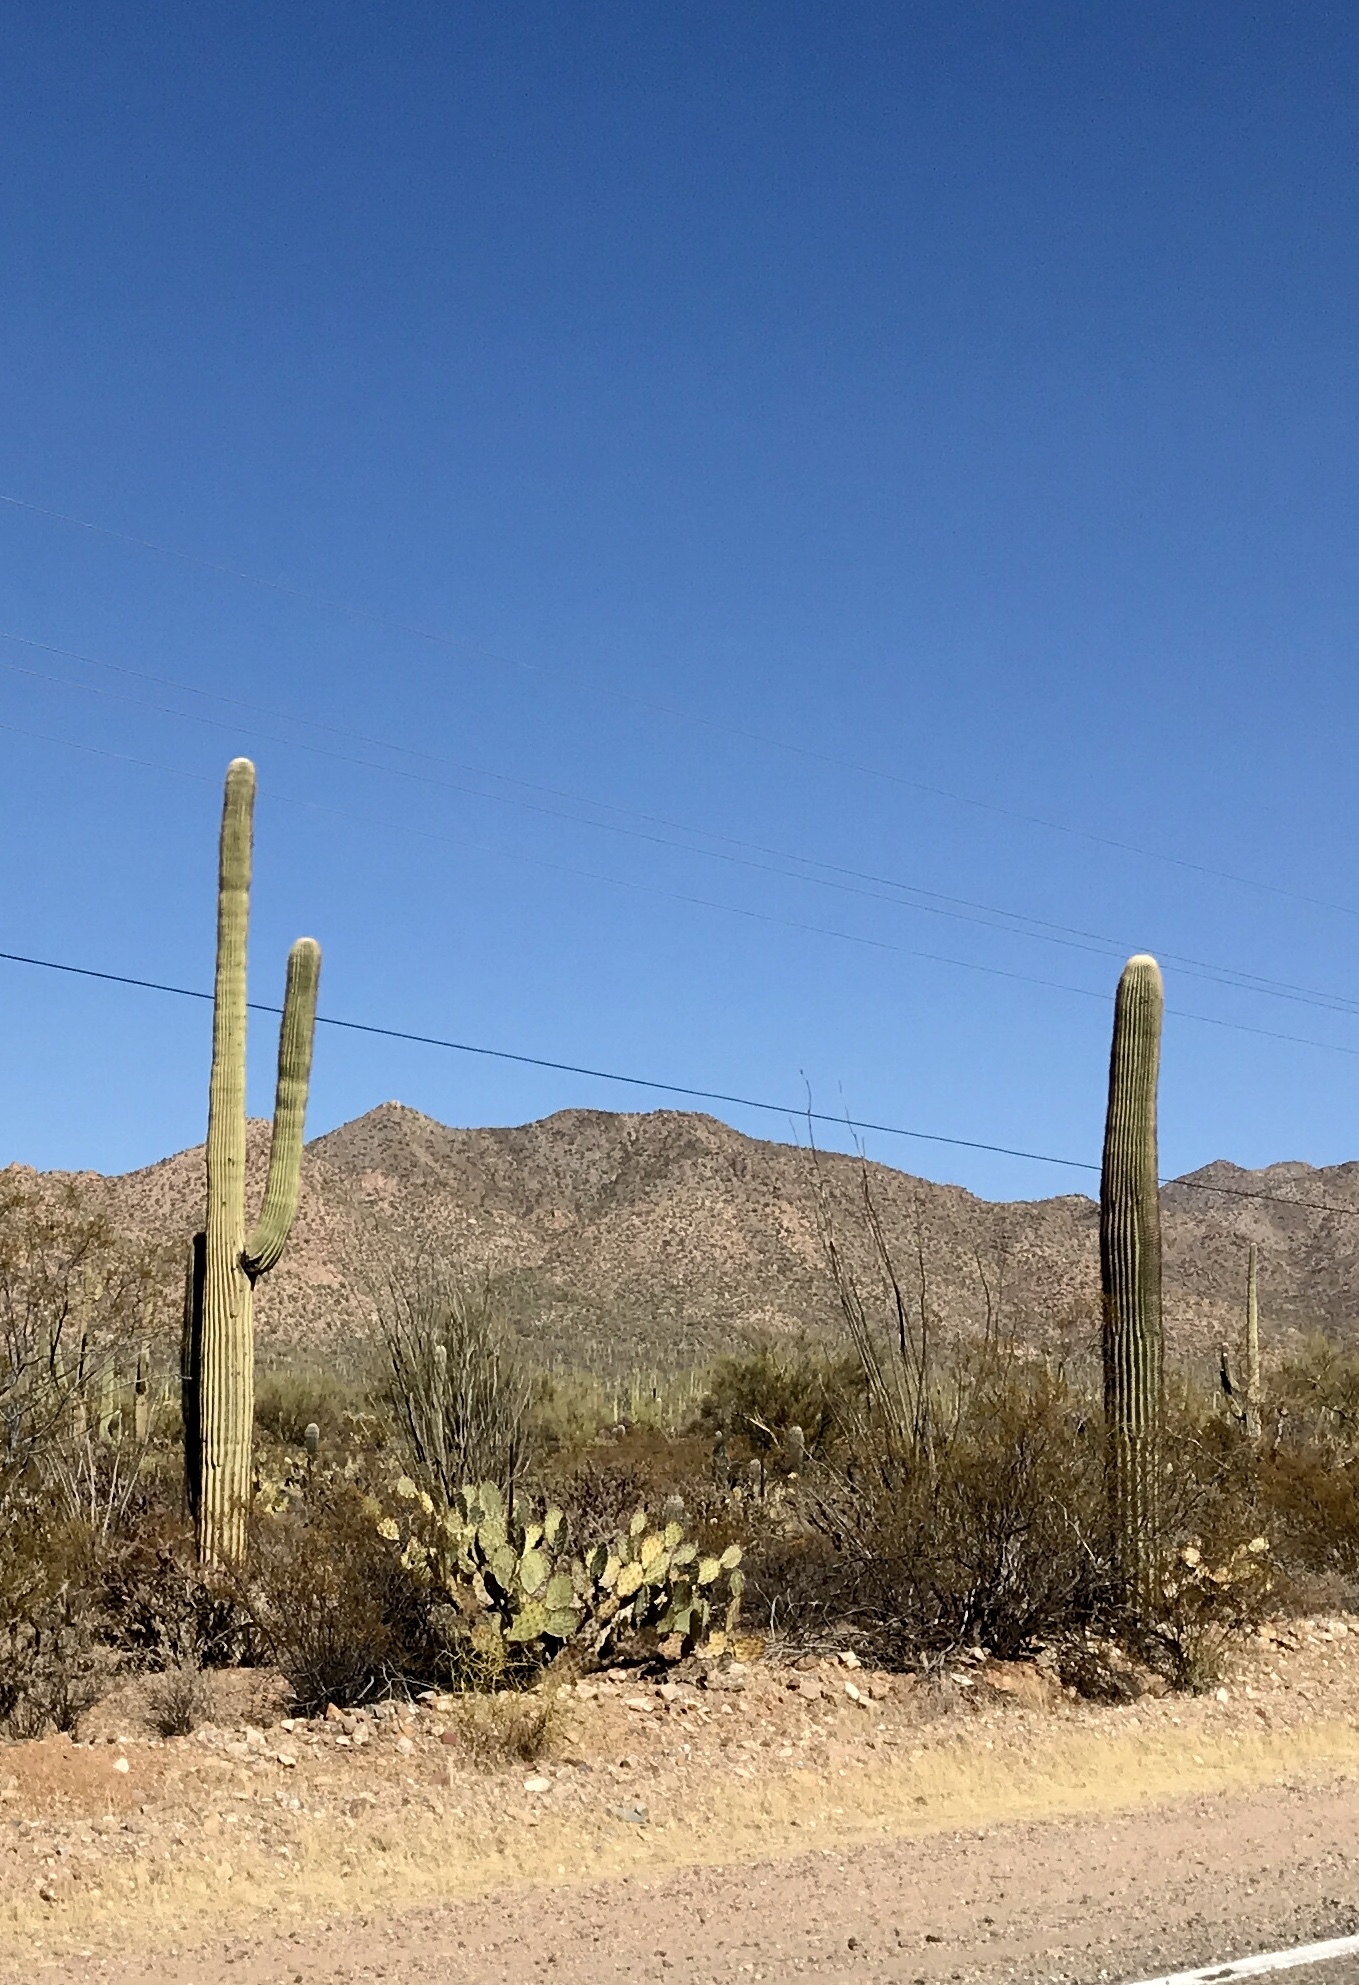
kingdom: Plantae
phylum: Tracheophyta
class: Magnoliopsida
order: Caryophyllales
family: Cactaceae
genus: Carnegiea
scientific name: Carnegiea gigantea
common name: Saguaro
